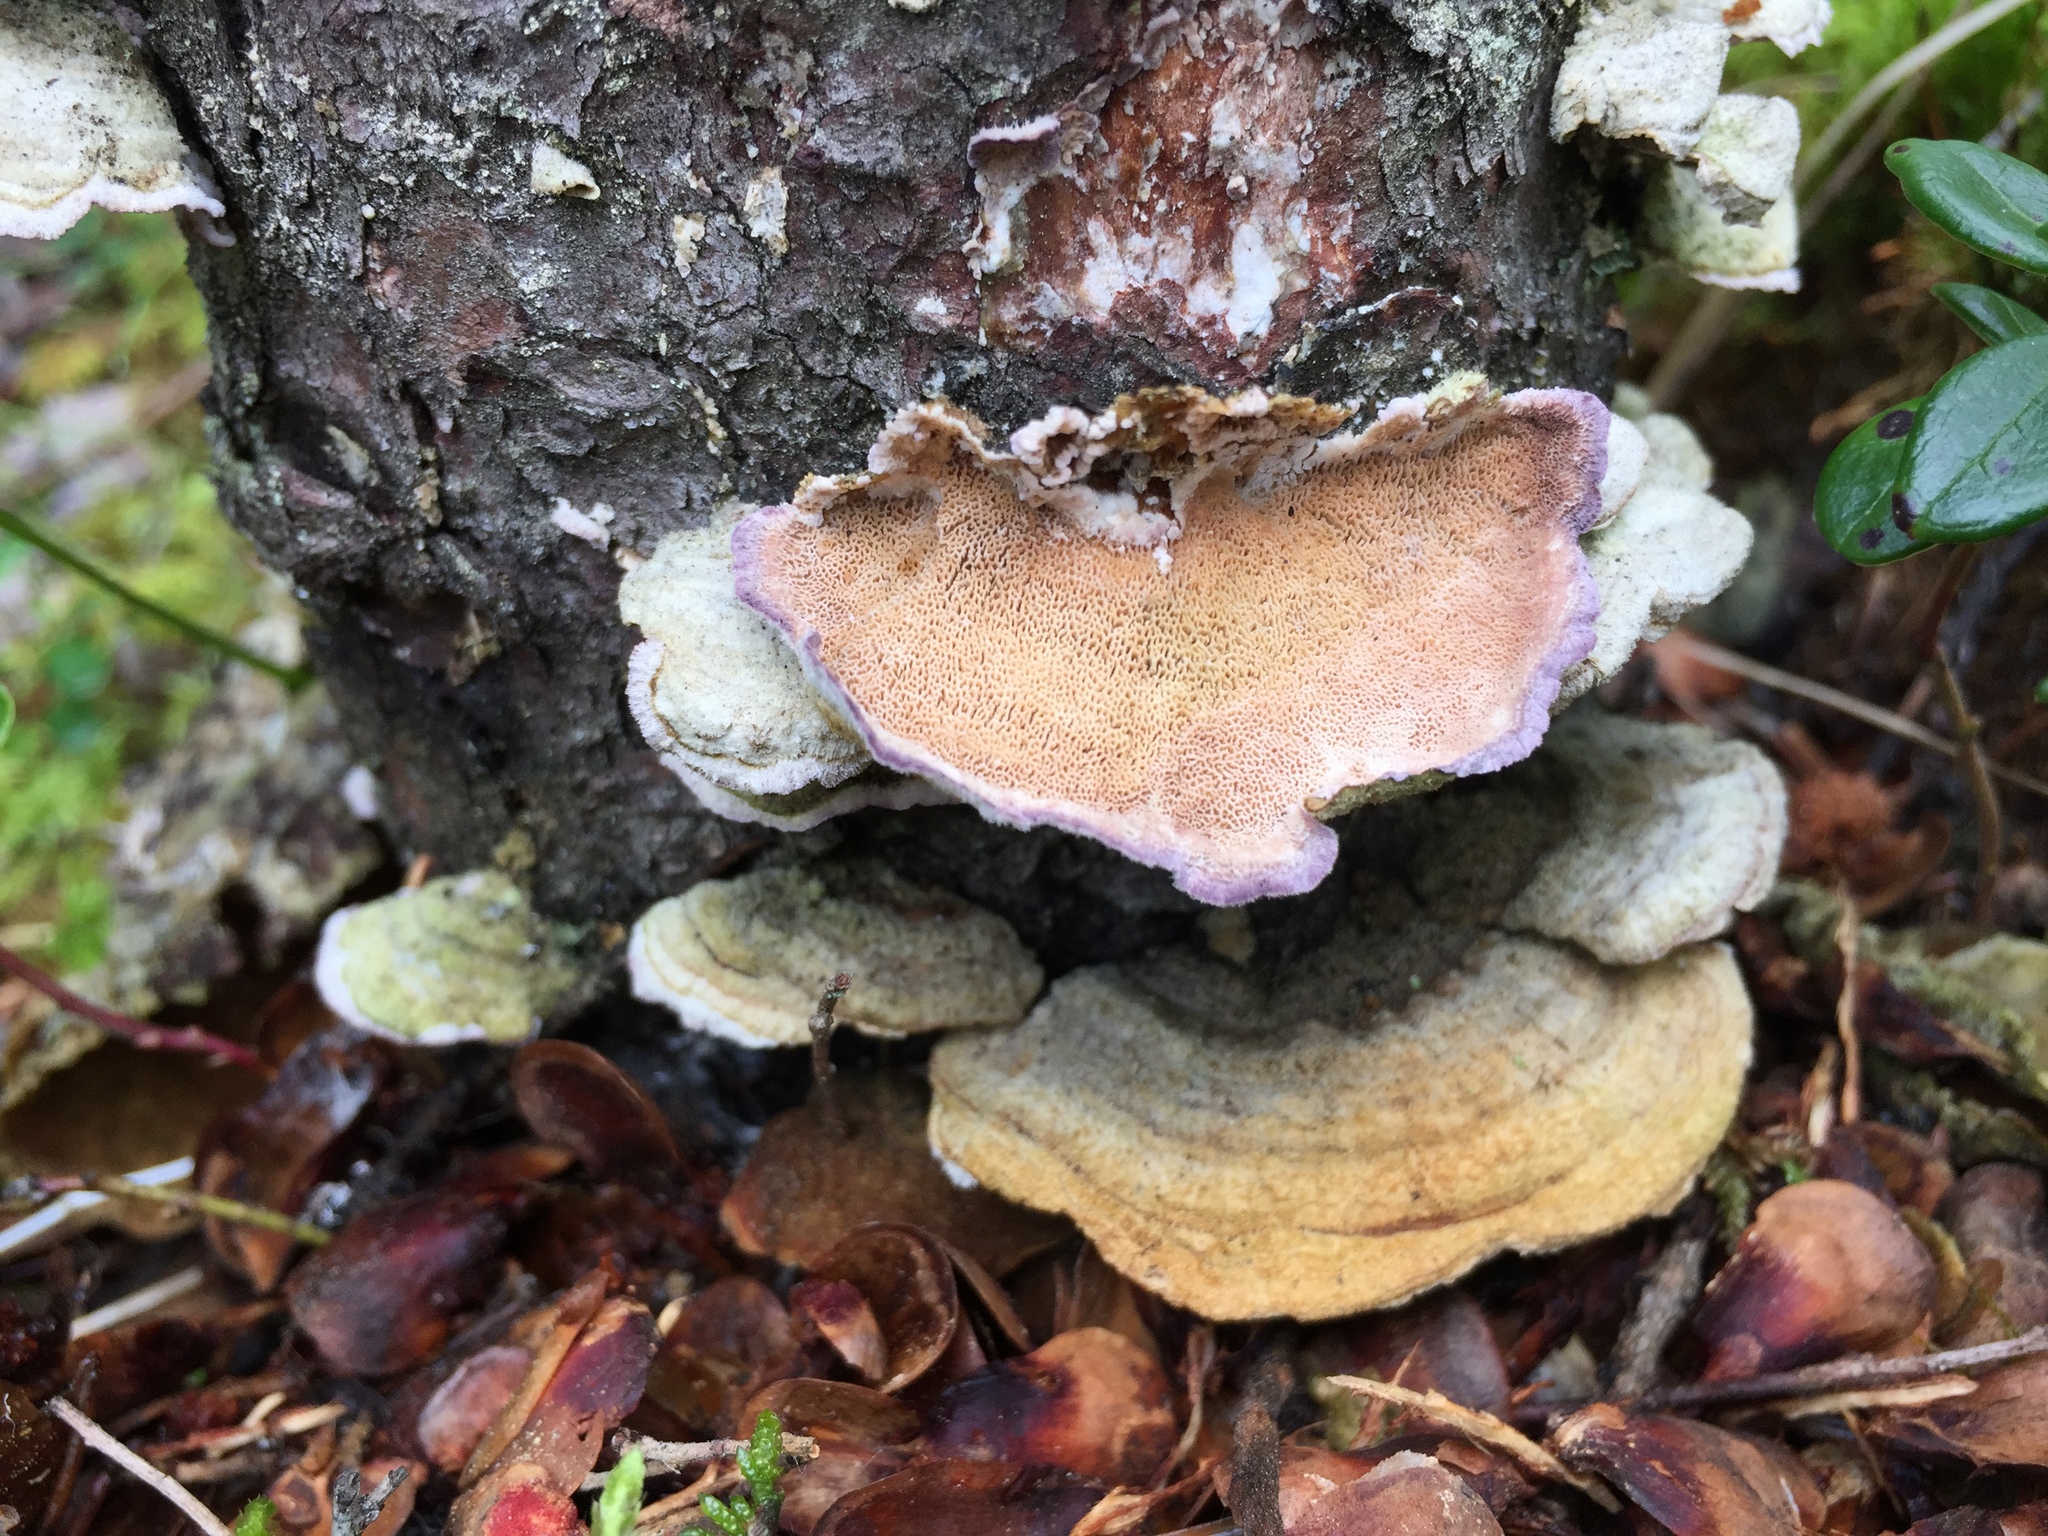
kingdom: Fungi
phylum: Basidiomycota
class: Agaricomycetes
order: Hymenochaetales
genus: Trichaptum
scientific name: Trichaptum abietinum
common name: Purplepore bracket
